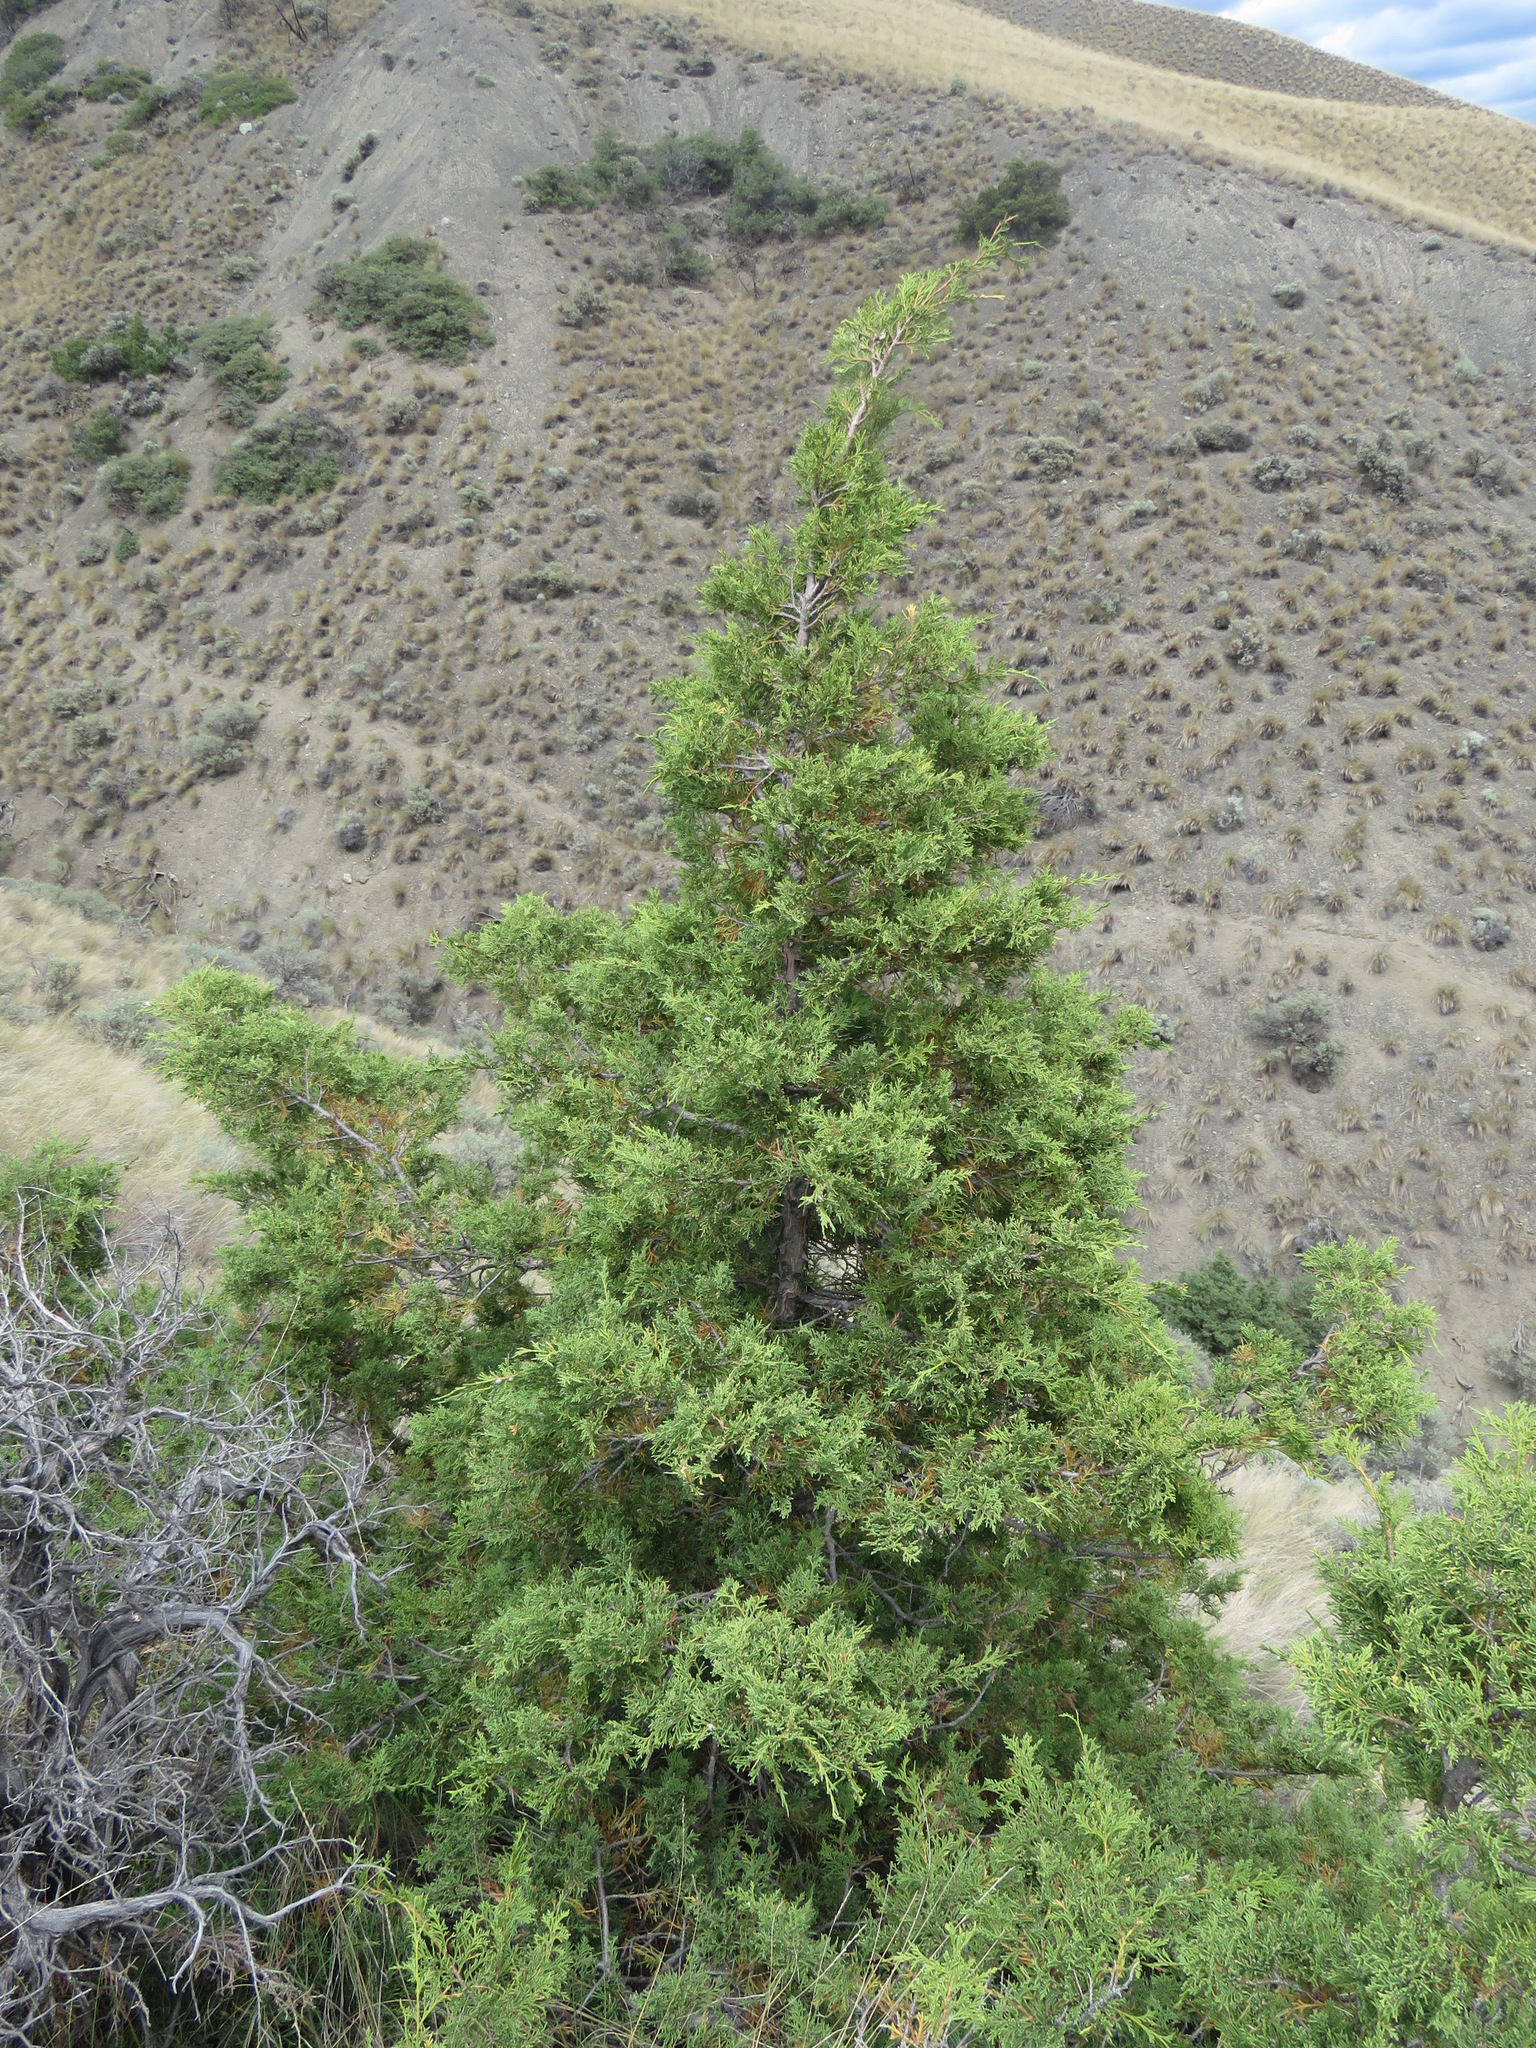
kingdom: Plantae
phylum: Tracheophyta
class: Pinopsida
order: Pinales
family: Cupressaceae
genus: Juniperus
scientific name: Juniperus scopulorum
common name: Rocky mountain juniper
